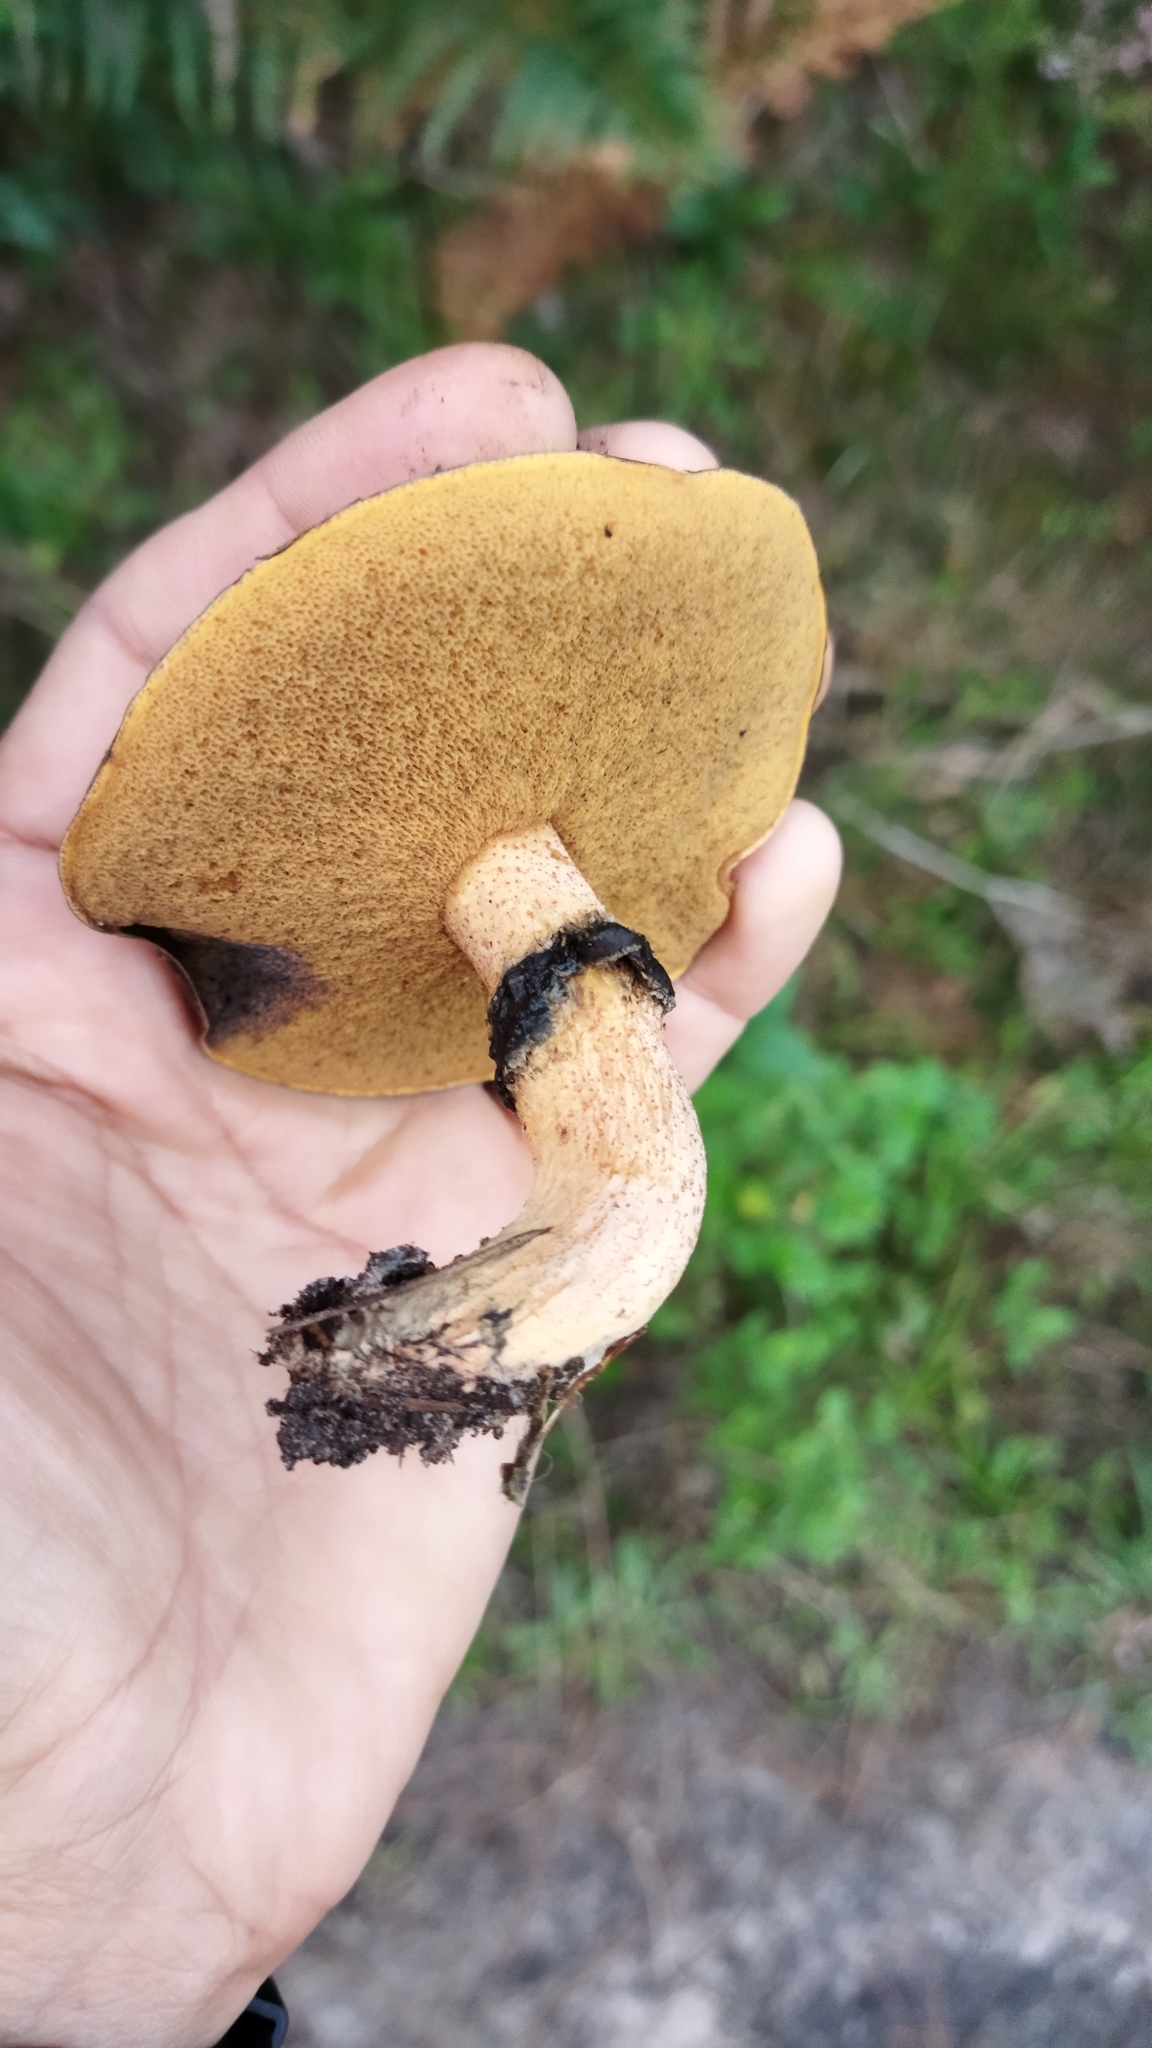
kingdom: Fungi
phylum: Basidiomycota
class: Agaricomycetes
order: Boletales
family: Suillaceae
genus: Suillus
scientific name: Suillus luteus
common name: Slippery jack
